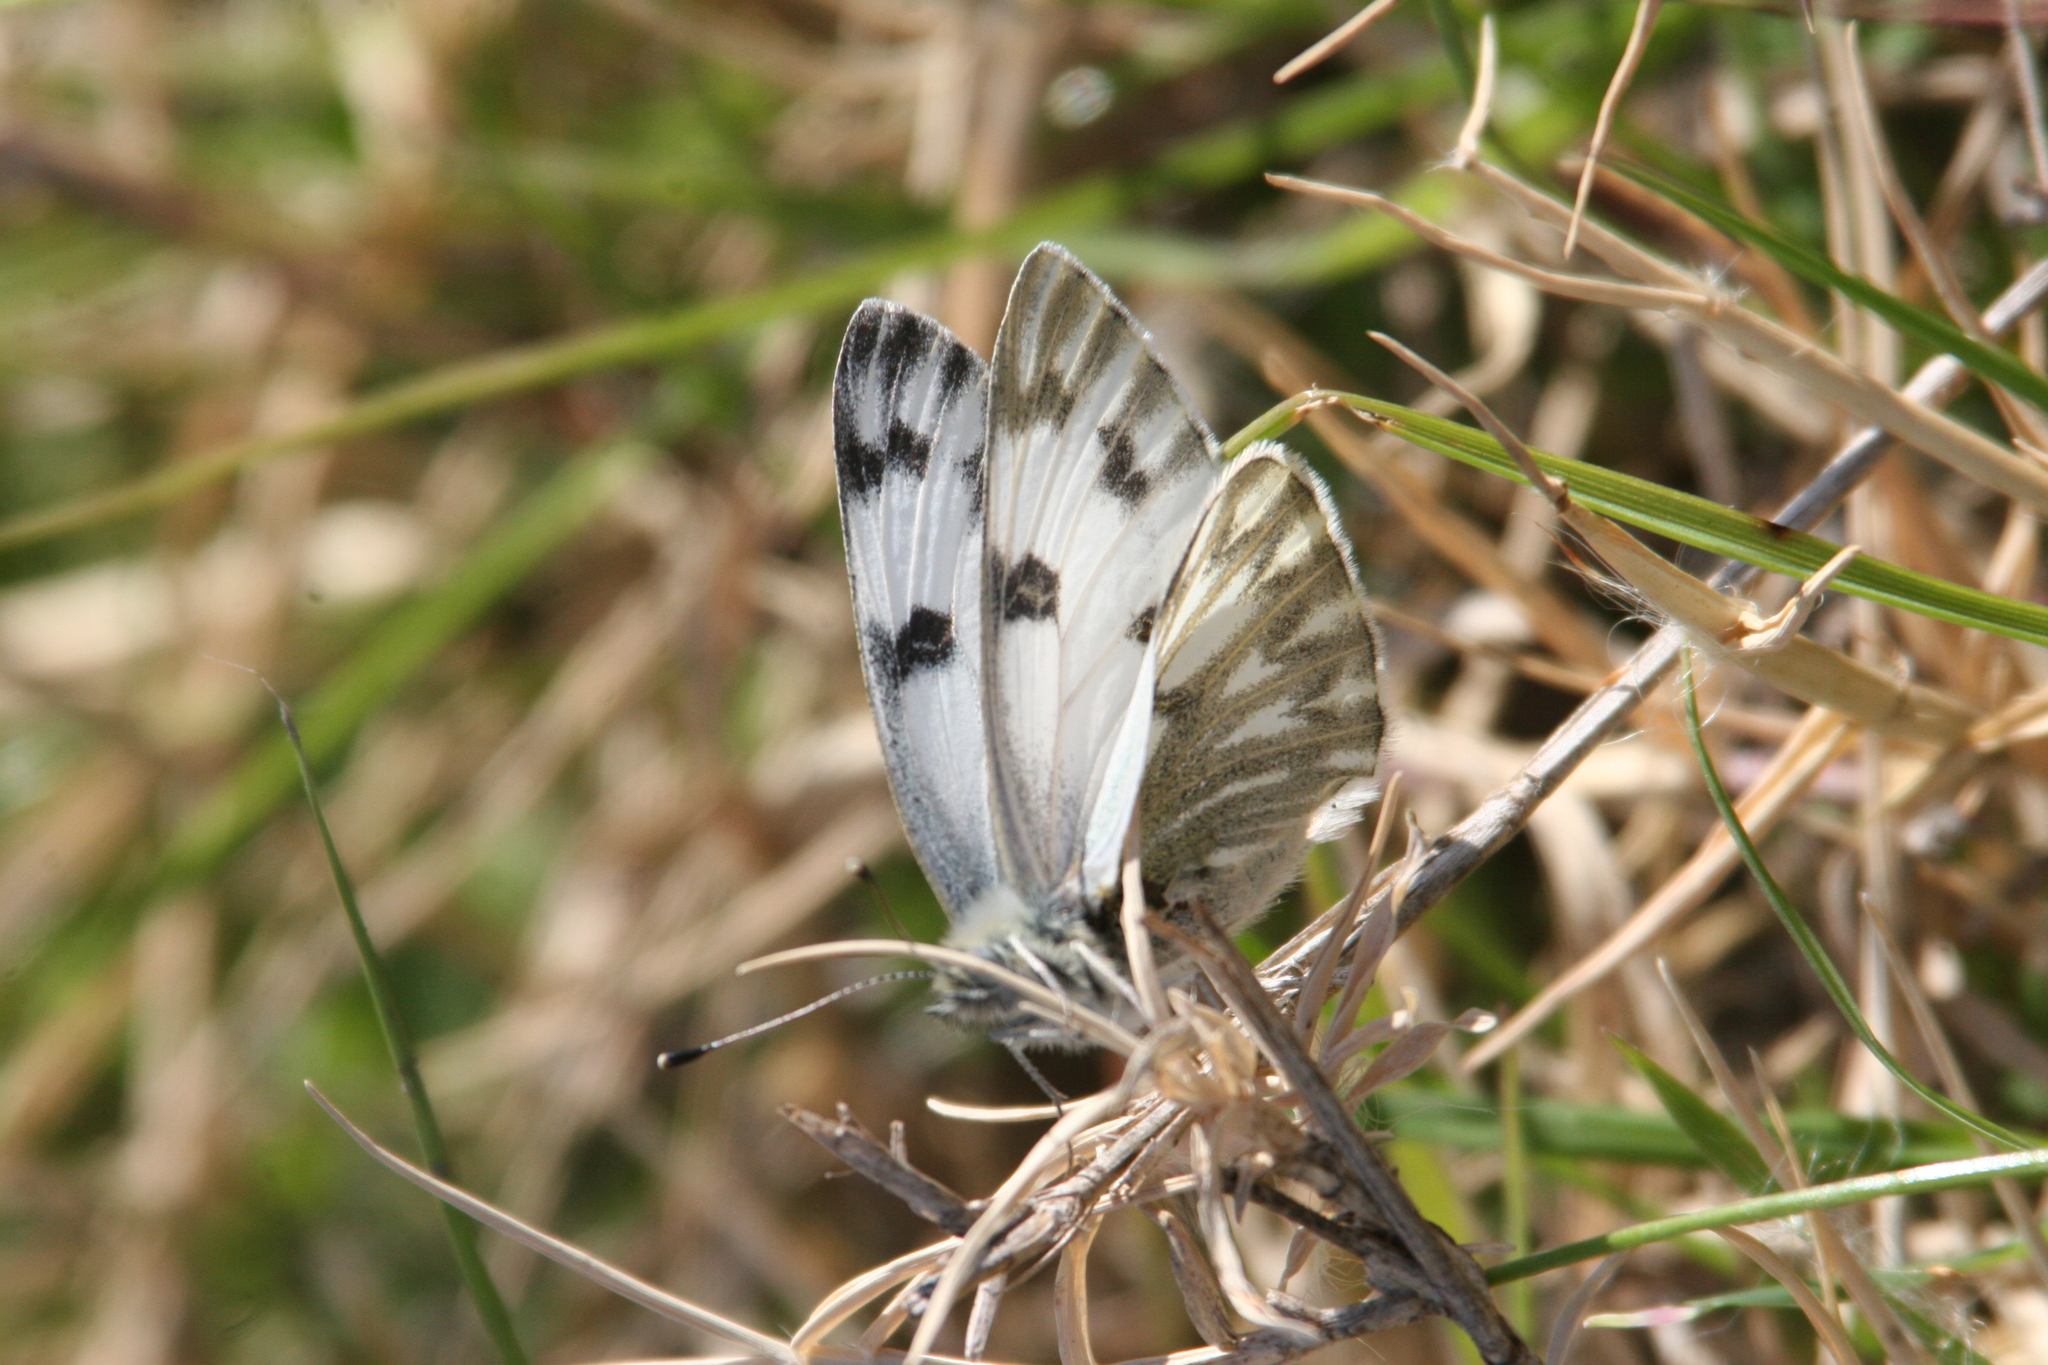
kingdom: Animalia
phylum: Arthropoda
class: Insecta
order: Lepidoptera
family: Pieridae
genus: Pontia
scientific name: Pontia protodice
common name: Checkered white
